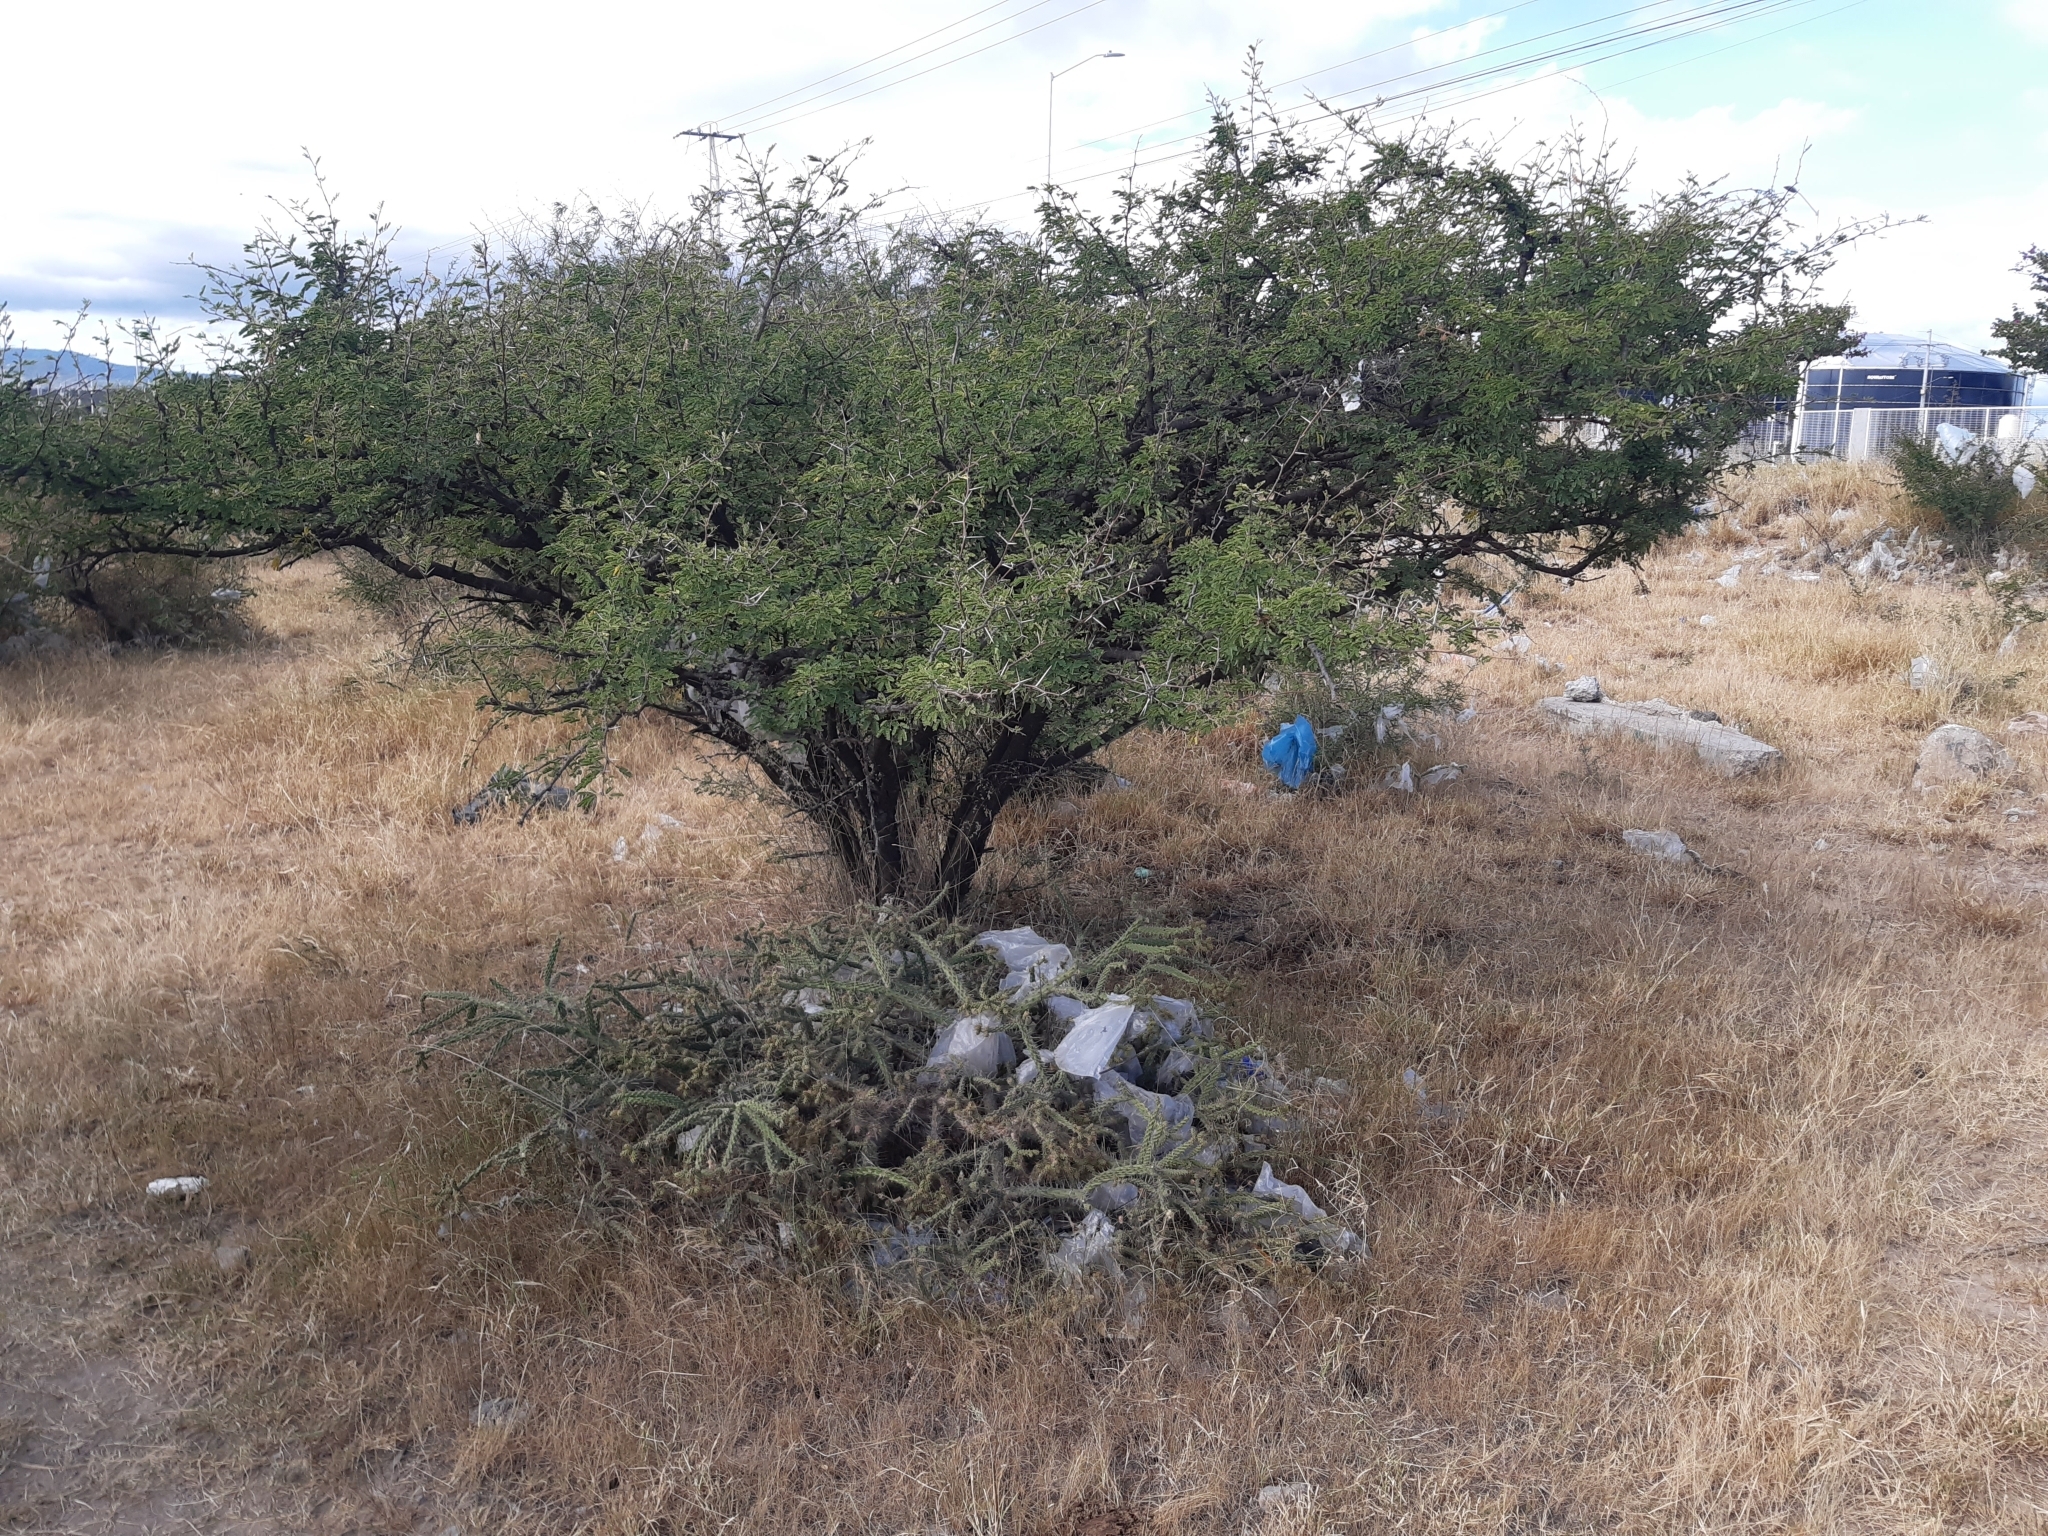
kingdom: Plantae
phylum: Tracheophyta
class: Magnoliopsida
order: Caryophyllales
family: Cactaceae
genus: Opuntia
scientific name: Opuntia pubescens
